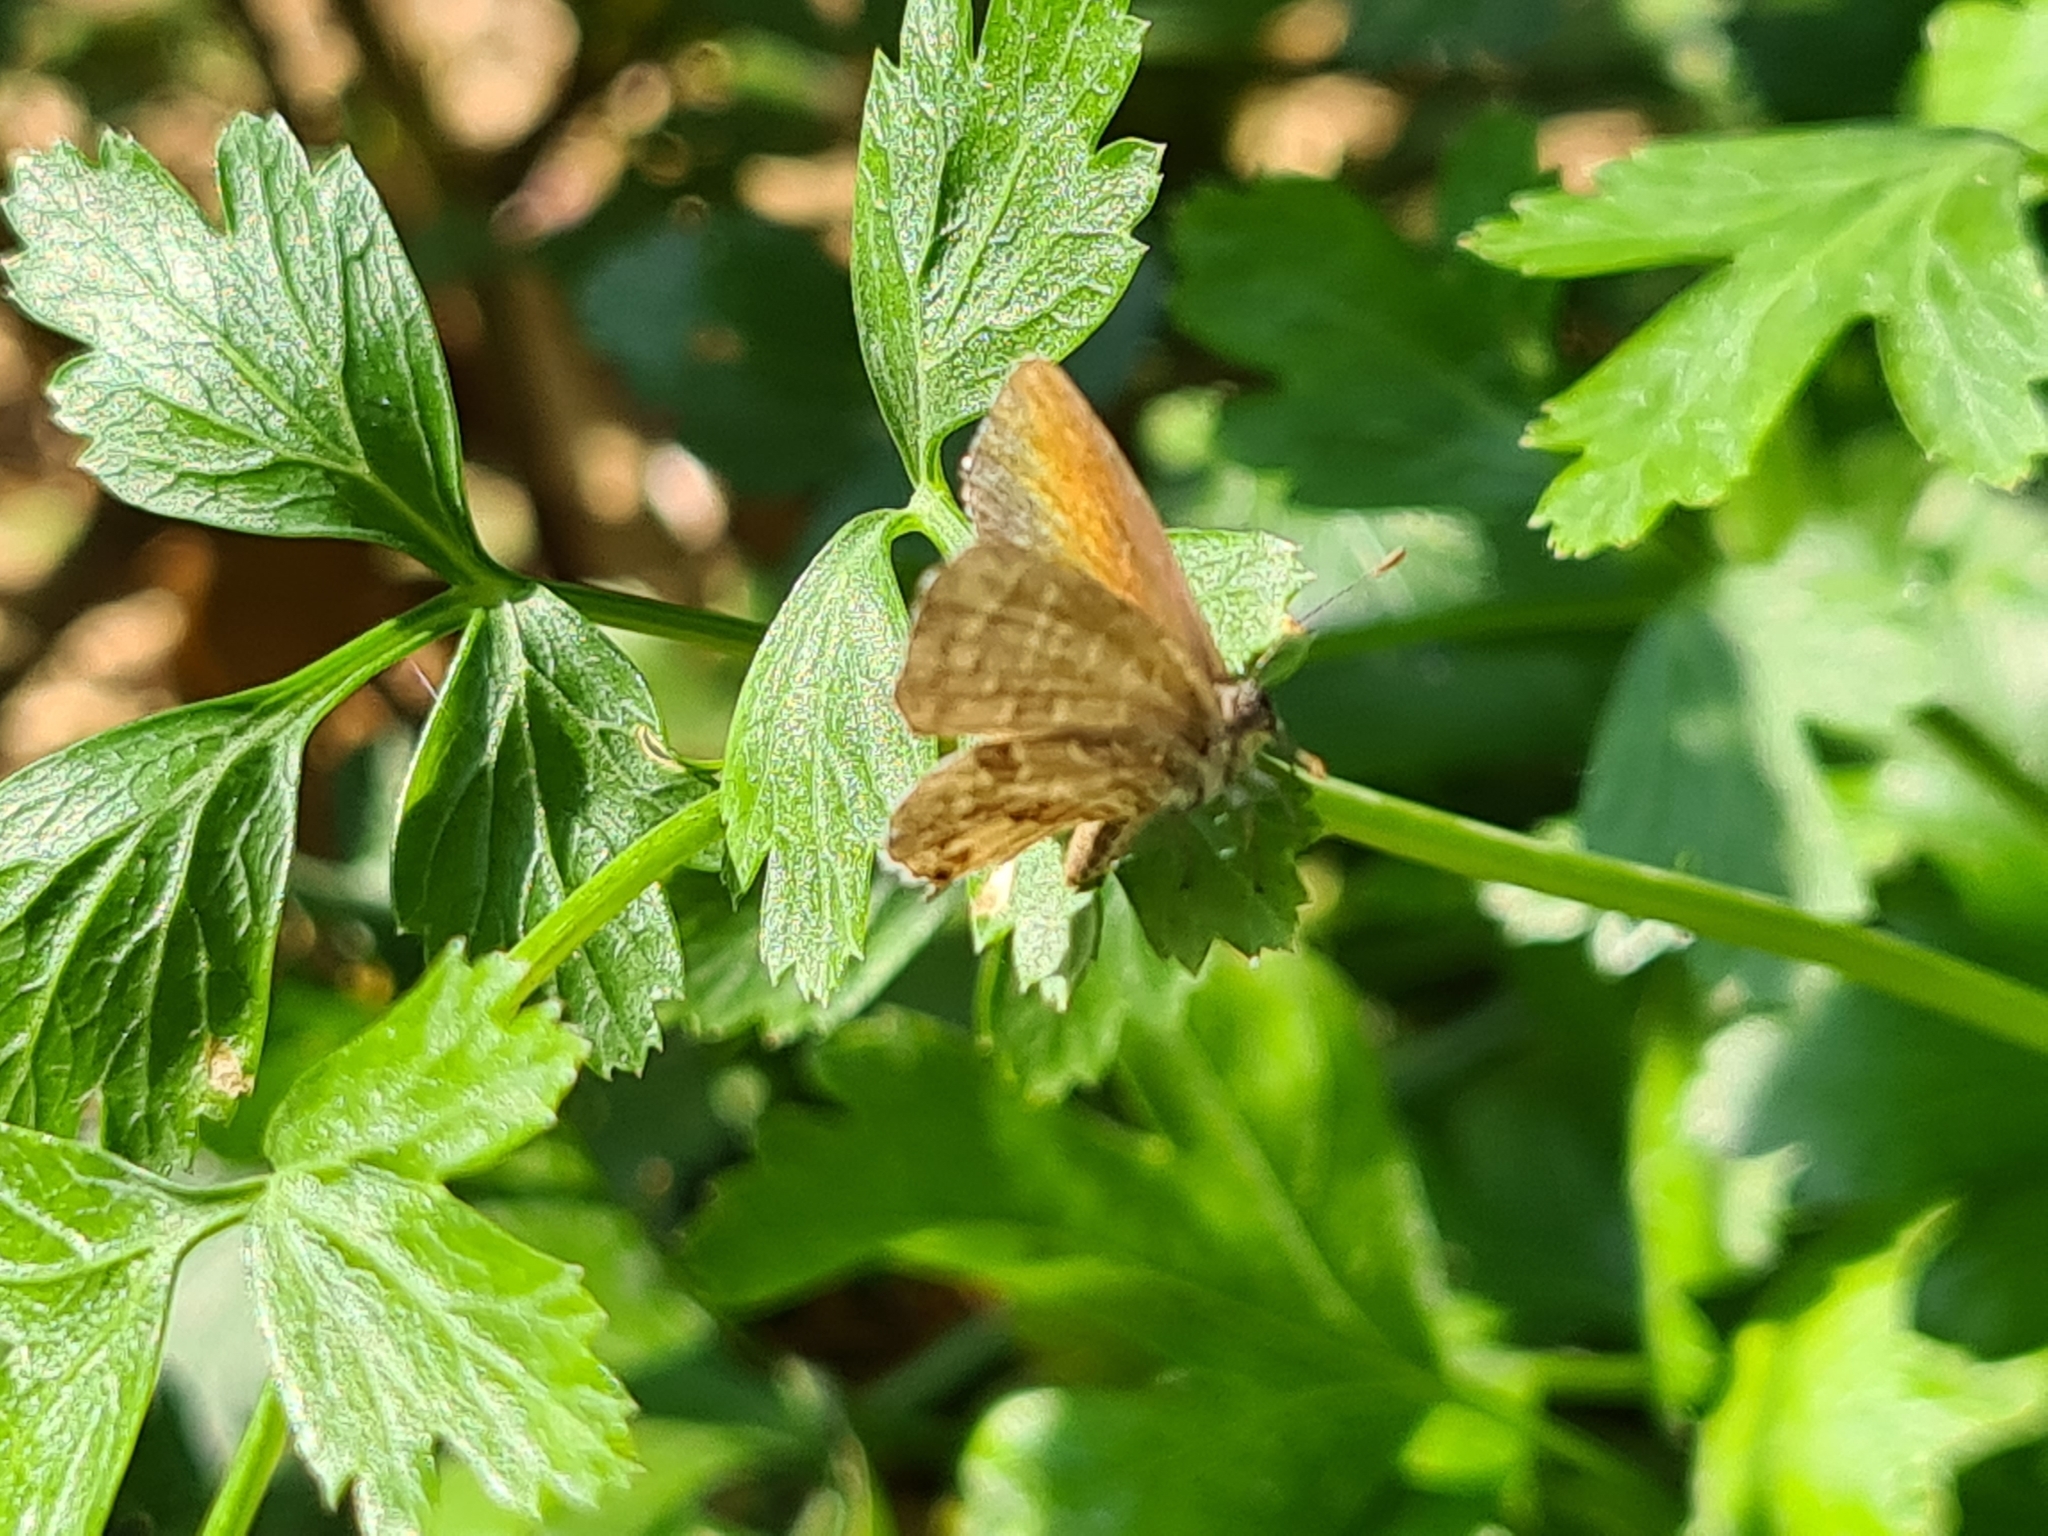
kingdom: Animalia
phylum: Arthropoda
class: Insecta
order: Lepidoptera
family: Lycaenidae
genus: Cacyreus
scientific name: Cacyreus marshalli
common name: Geranium bronze
